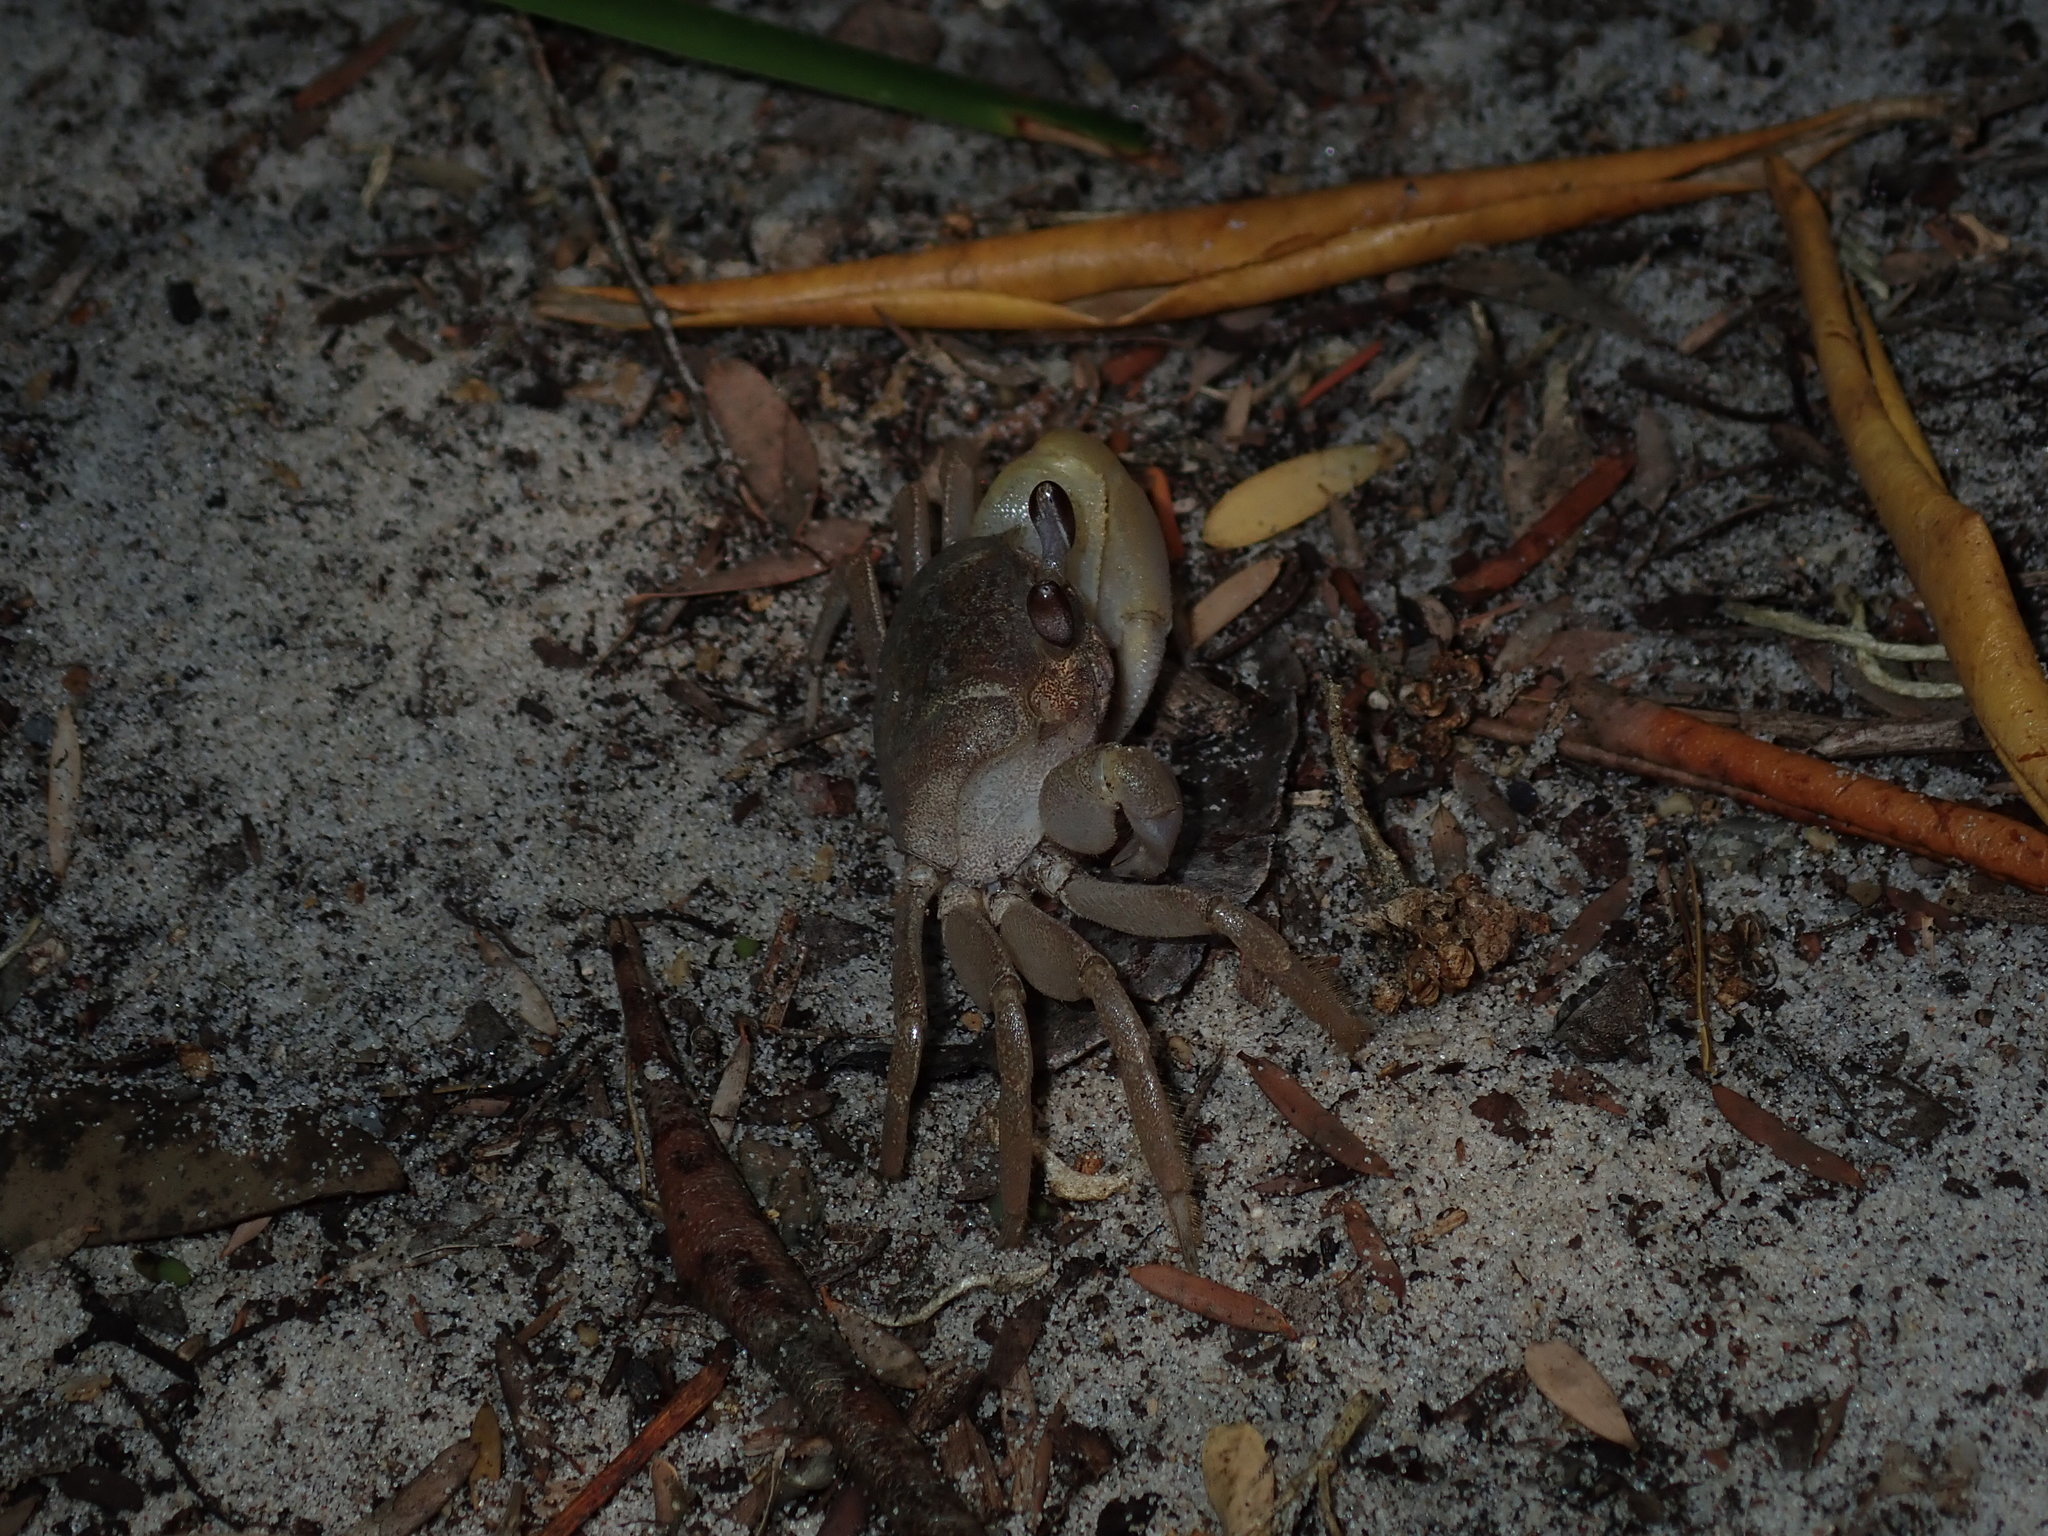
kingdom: Animalia
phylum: Arthropoda
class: Malacostraca
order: Decapoda
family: Ocypodidae
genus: Ocypode
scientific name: Ocypode cordimana
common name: Smooth-eyed ghost crab
